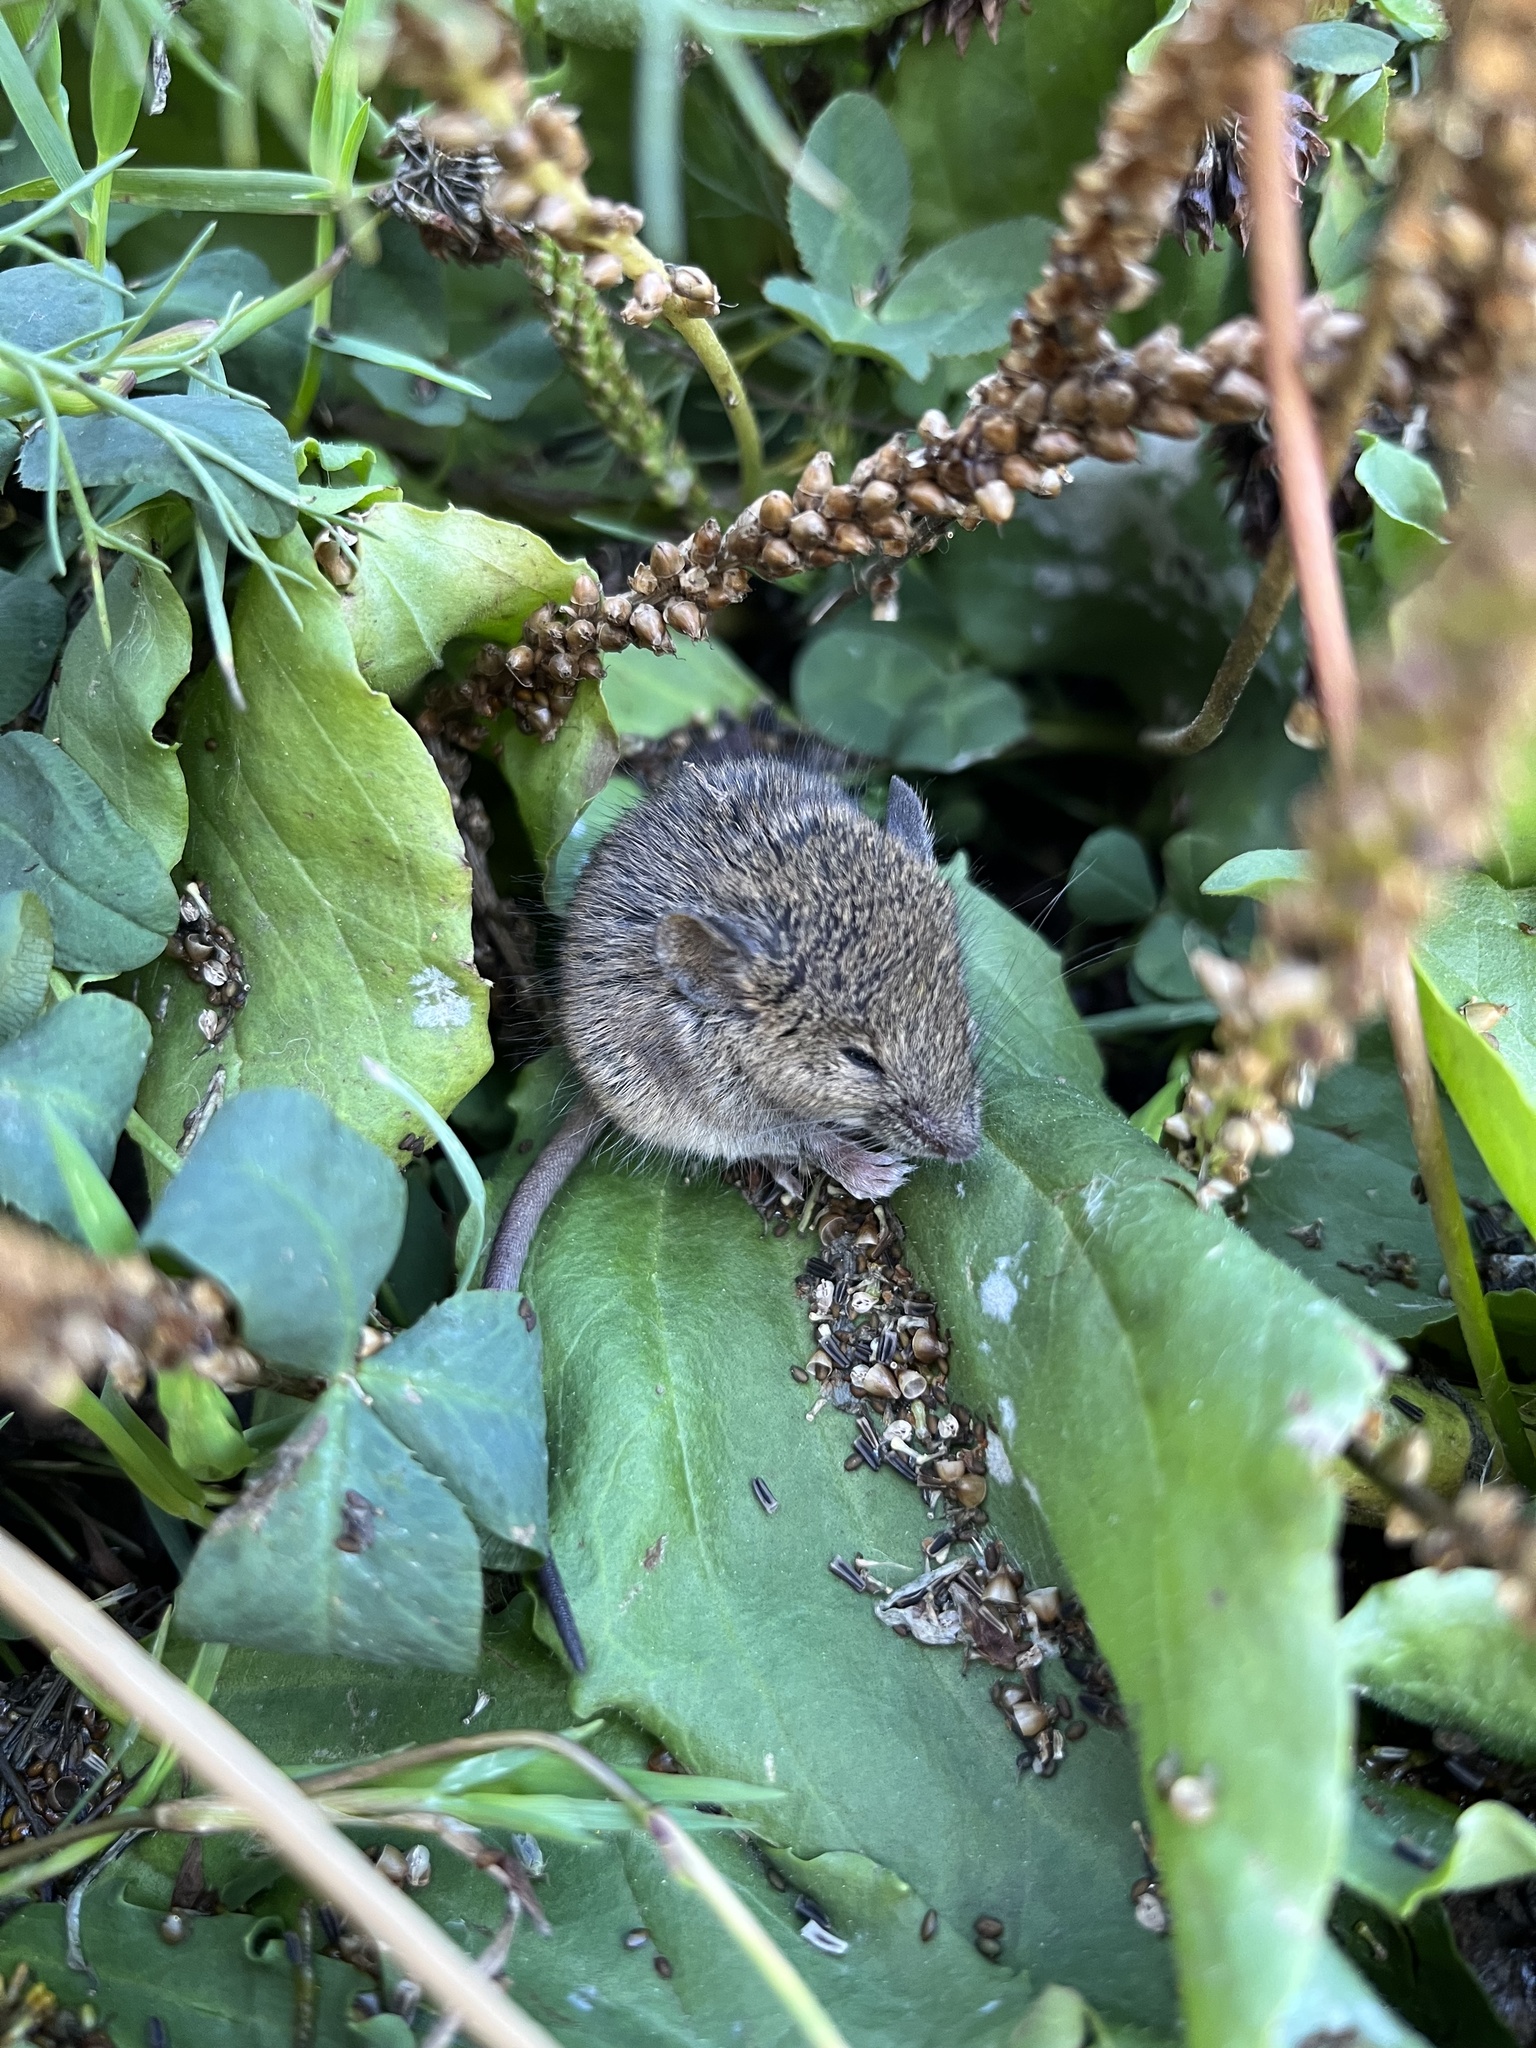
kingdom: Animalia
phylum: Chordata
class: Mammalia
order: Rodentia
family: Muridae
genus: Mus
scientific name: Mus musculus
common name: House mouse
